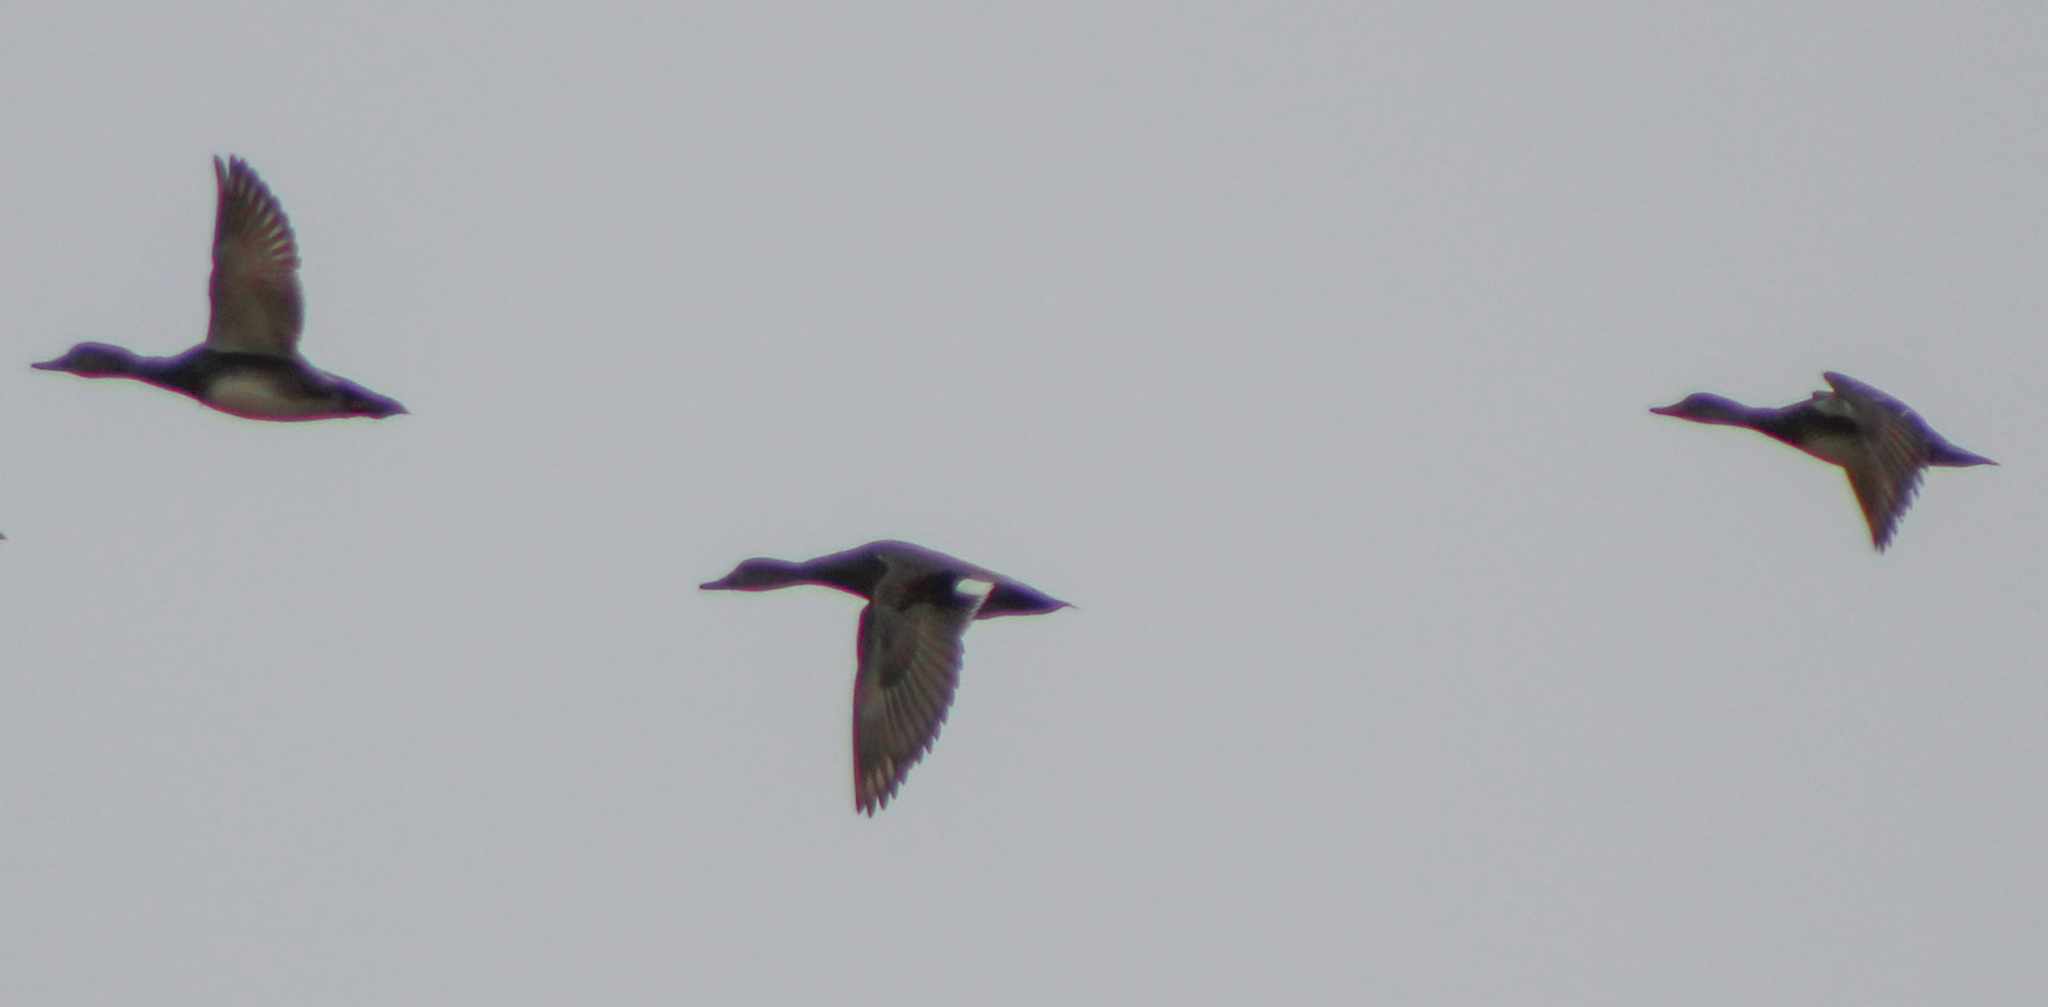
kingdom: Animalia
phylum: Chordata
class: Aves
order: Anseriformes
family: Anatidae
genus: Mareca
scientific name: Mareca strepera
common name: Gadwall
